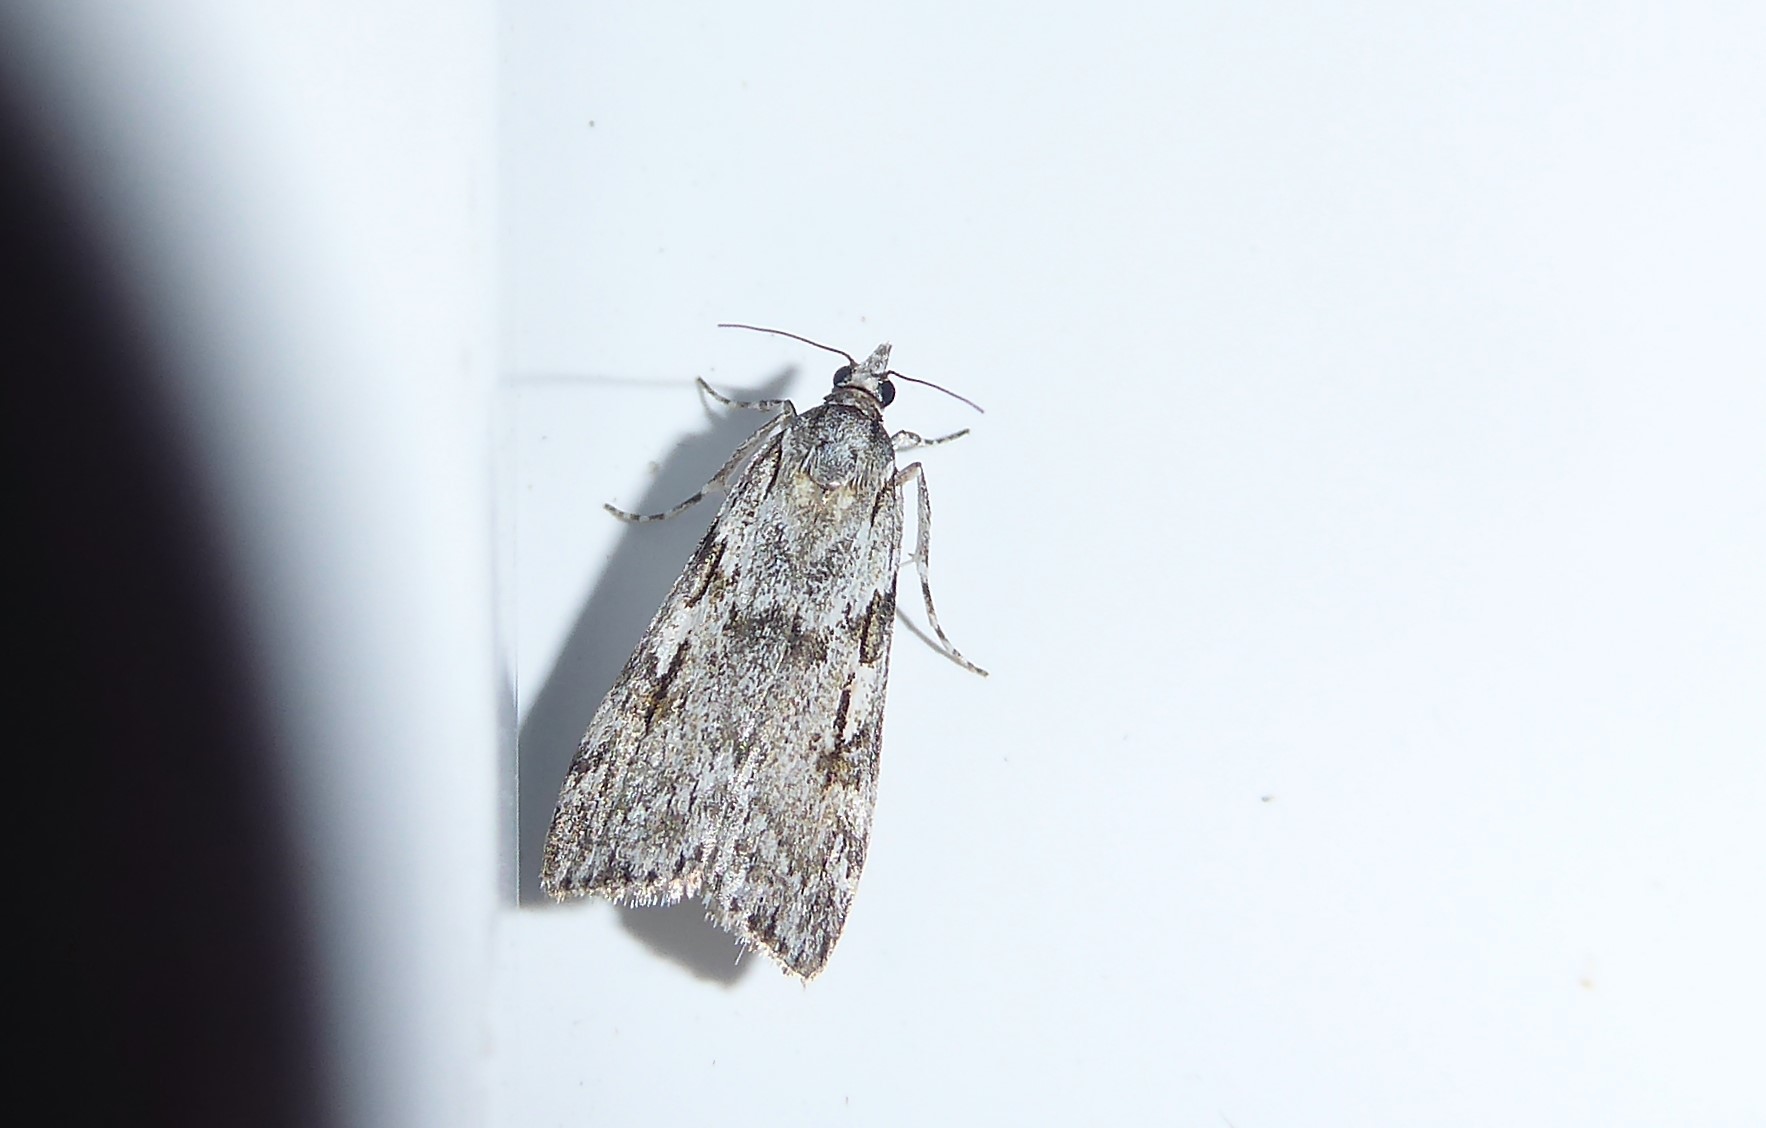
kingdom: Animalia
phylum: Arthropoda
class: Insecta
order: Lepidoptera
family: Crambidae
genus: Scoparia
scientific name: Scoparia halopis
